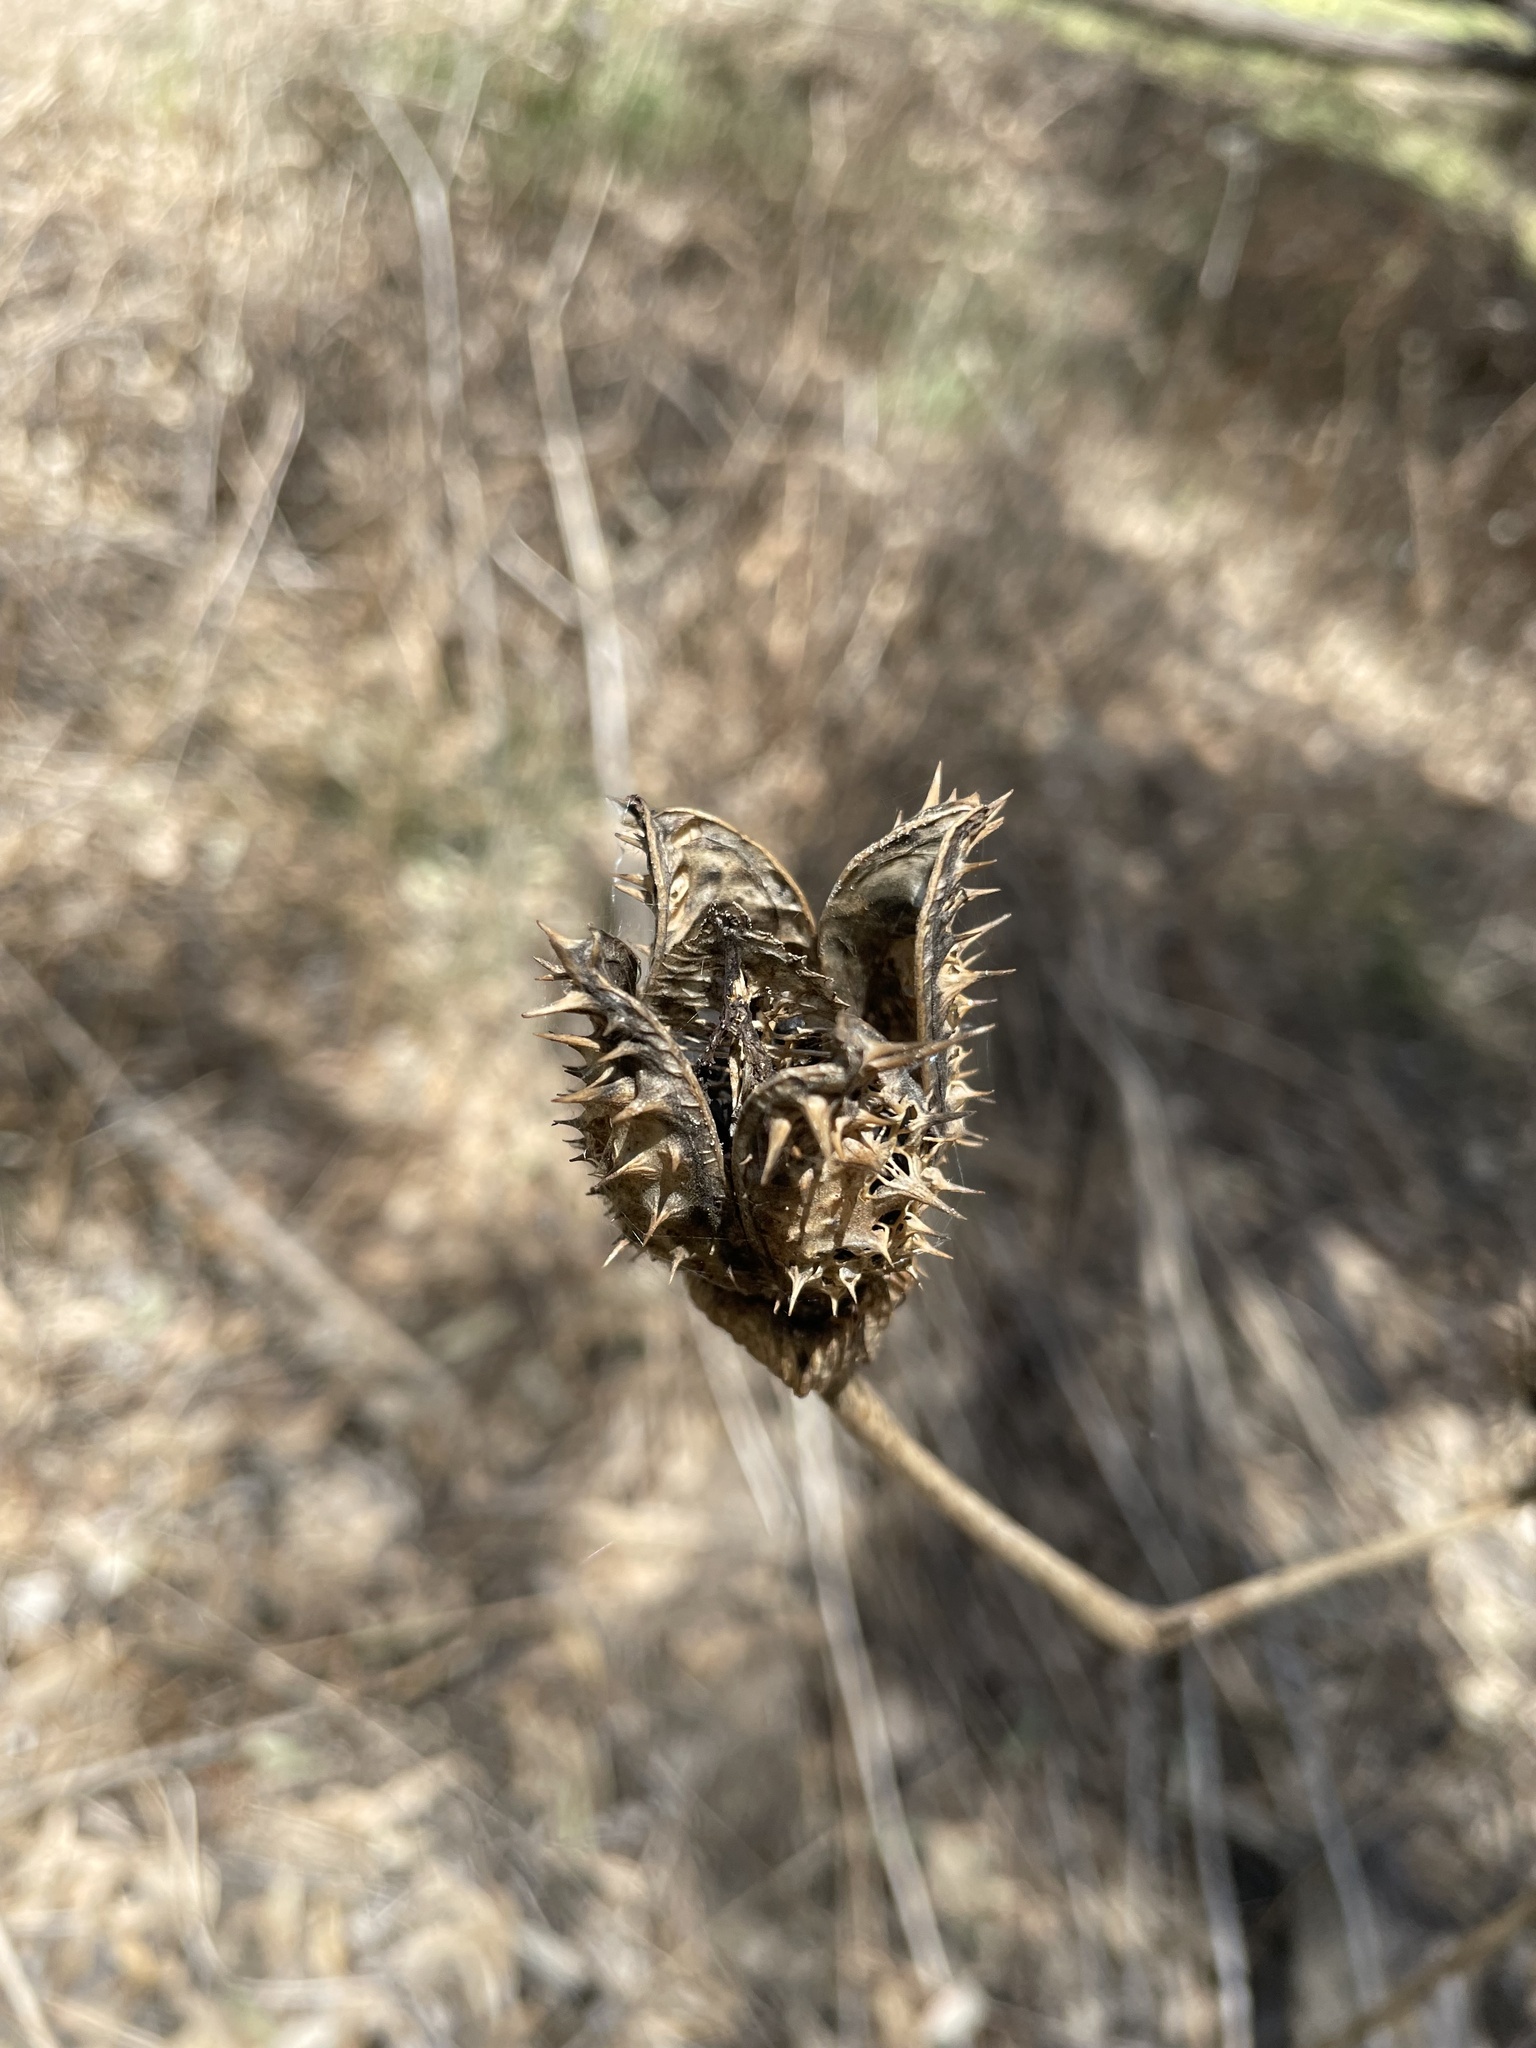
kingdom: Plantae
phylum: Tracheophyta
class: Magnoliopsida
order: Solanales
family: Solanaceae
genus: Datura
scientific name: Datura stramonium
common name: Thorn-apple
